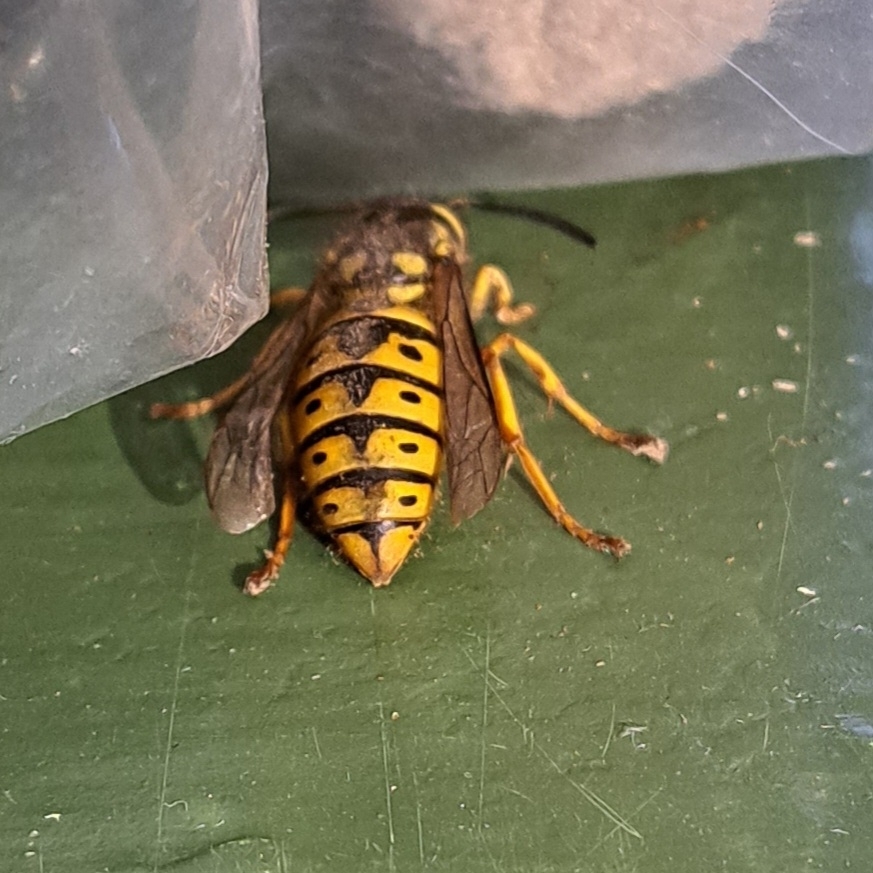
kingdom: Animalia
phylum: Arthropoda
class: Insecta
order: Hymenoptera
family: Vespidae
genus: Vespula
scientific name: Vespula germanica
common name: German wasp
